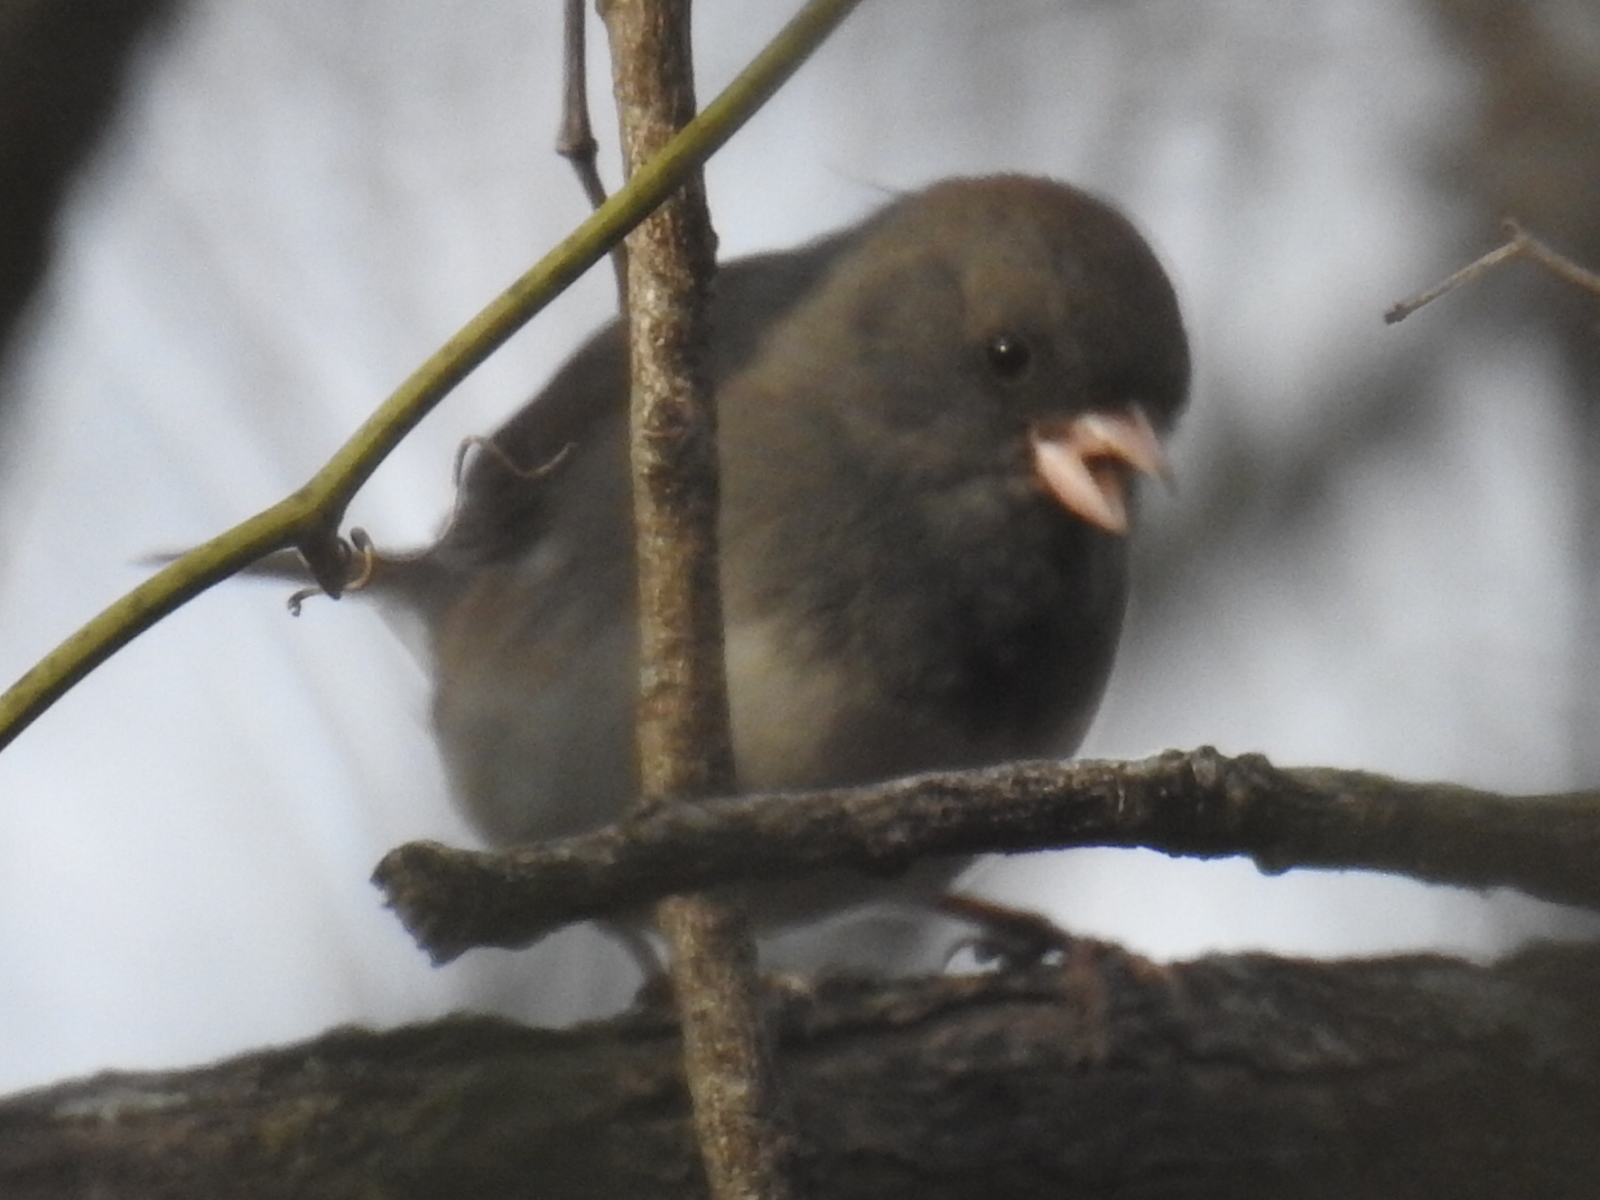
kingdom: Animalia
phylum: Chordata
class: Aves
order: Passeriformes
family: Passerellidae
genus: Junco
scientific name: Junco hyemalis
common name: Dark-eyed junco
